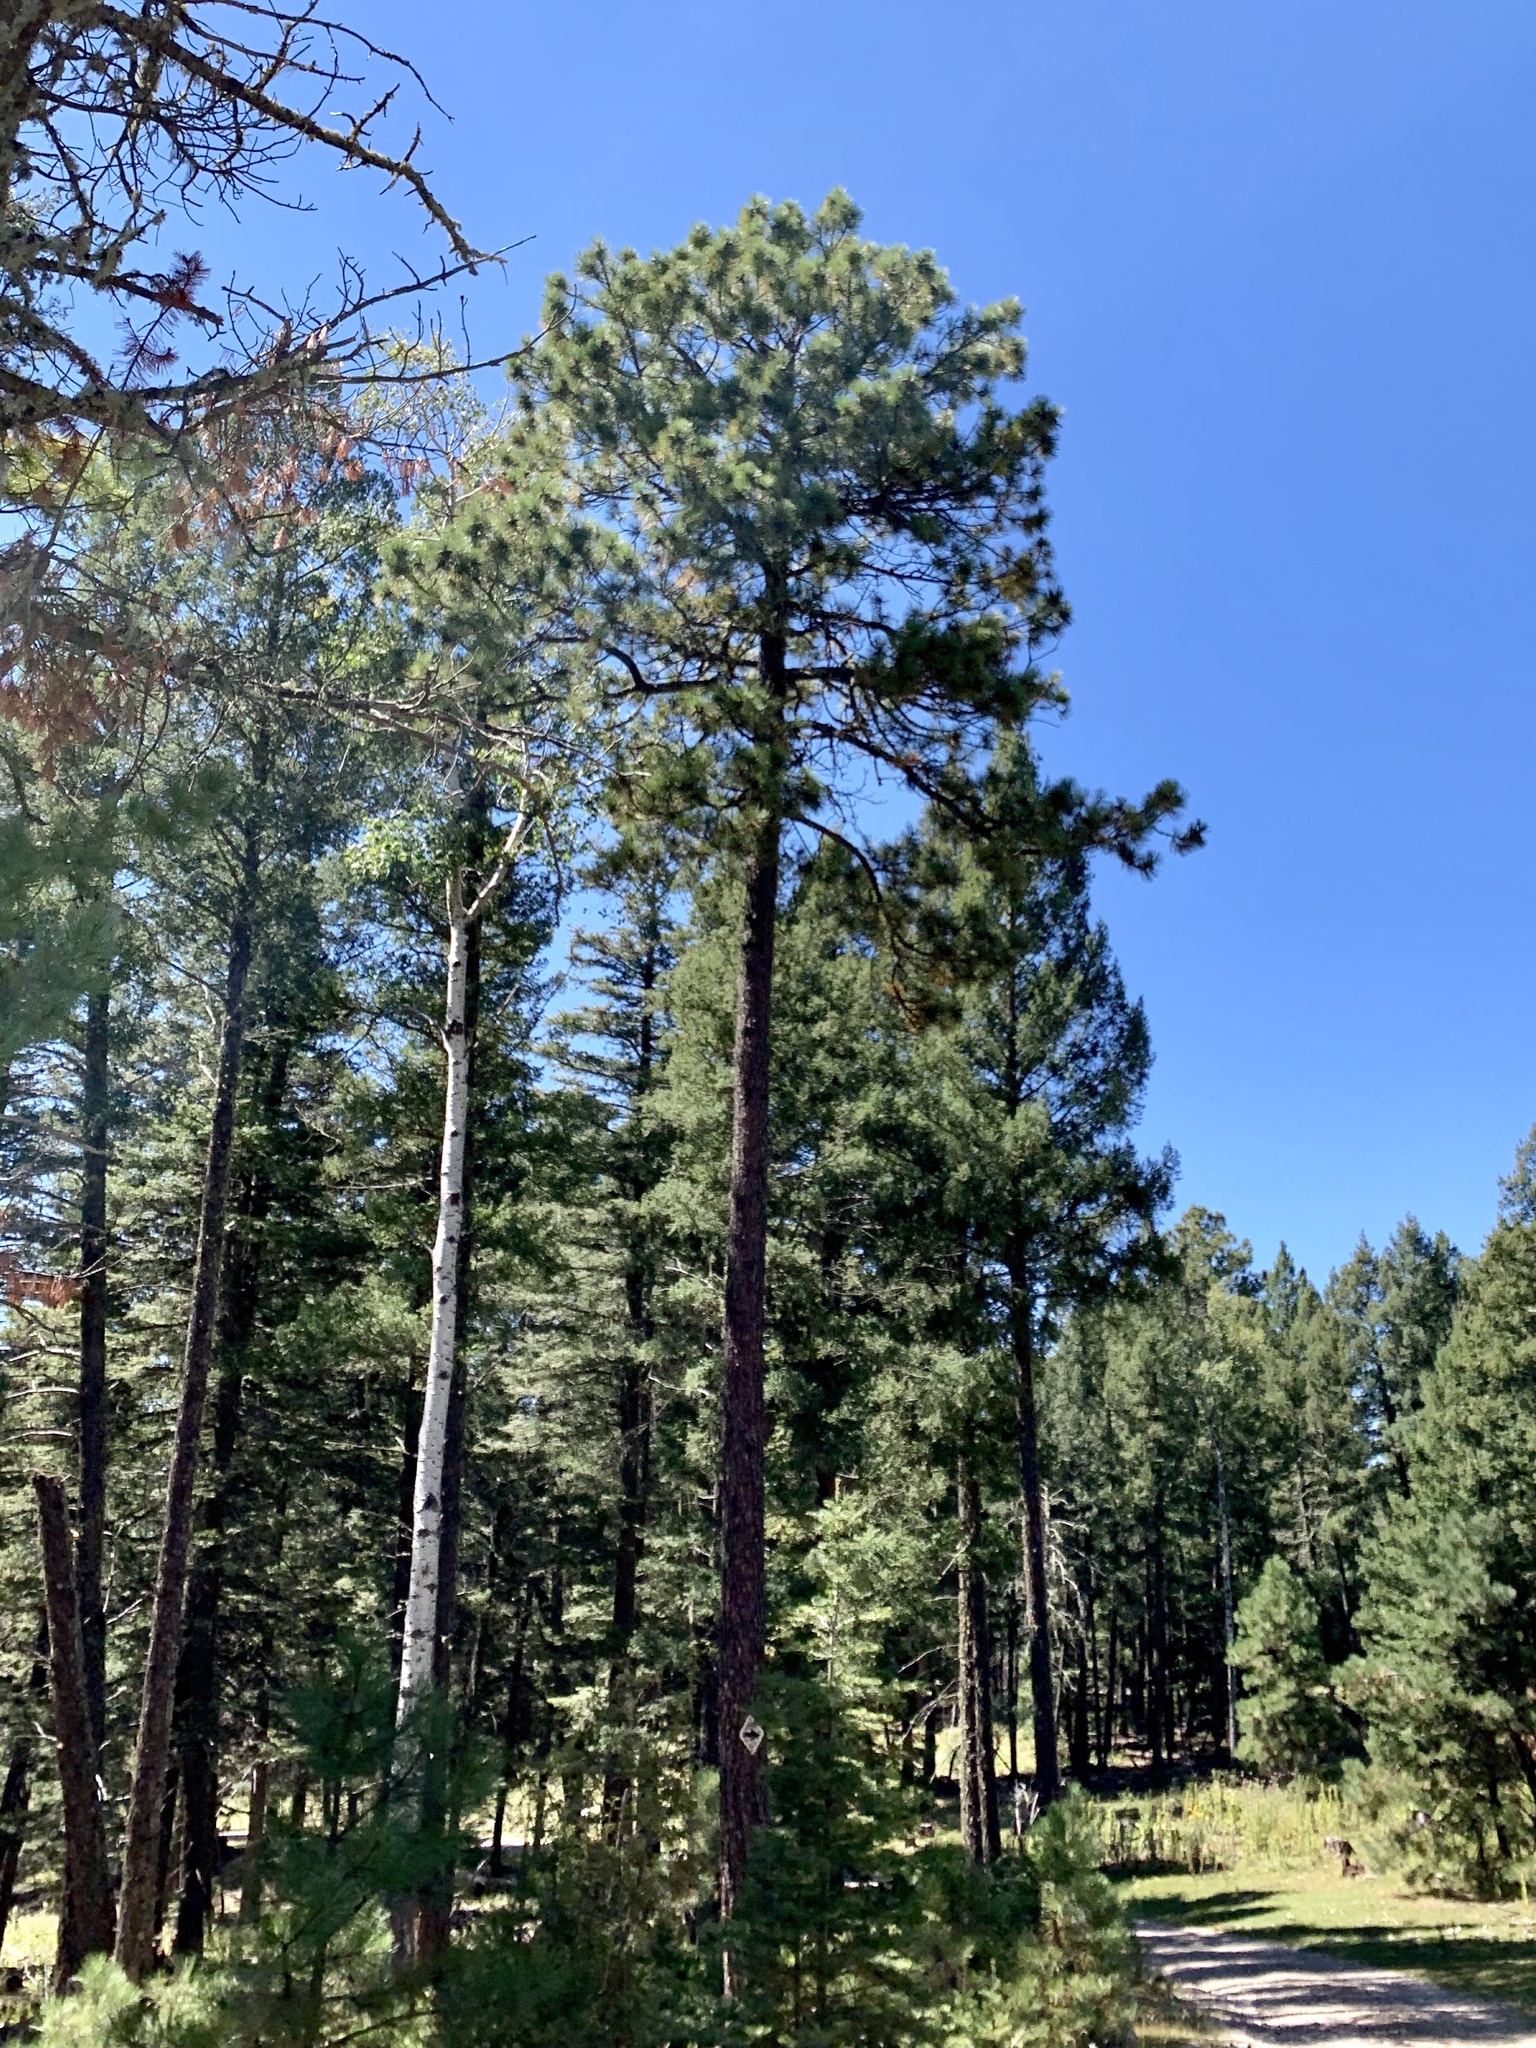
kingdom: Plantae
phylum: Tracheophyta
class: Pinopsida
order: Pinales
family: Pinaceae
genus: Pinus
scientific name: Pinus ponderosa
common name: Western yellow-pine
